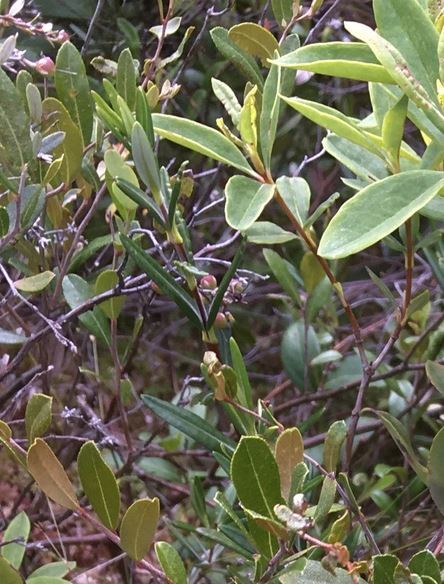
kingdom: Plantae
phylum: Tracheophyta
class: Magnoliopsida
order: Ericales
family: Ericaceae
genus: Kalmia
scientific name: Kalmia polifolia
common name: Bog-laurel
